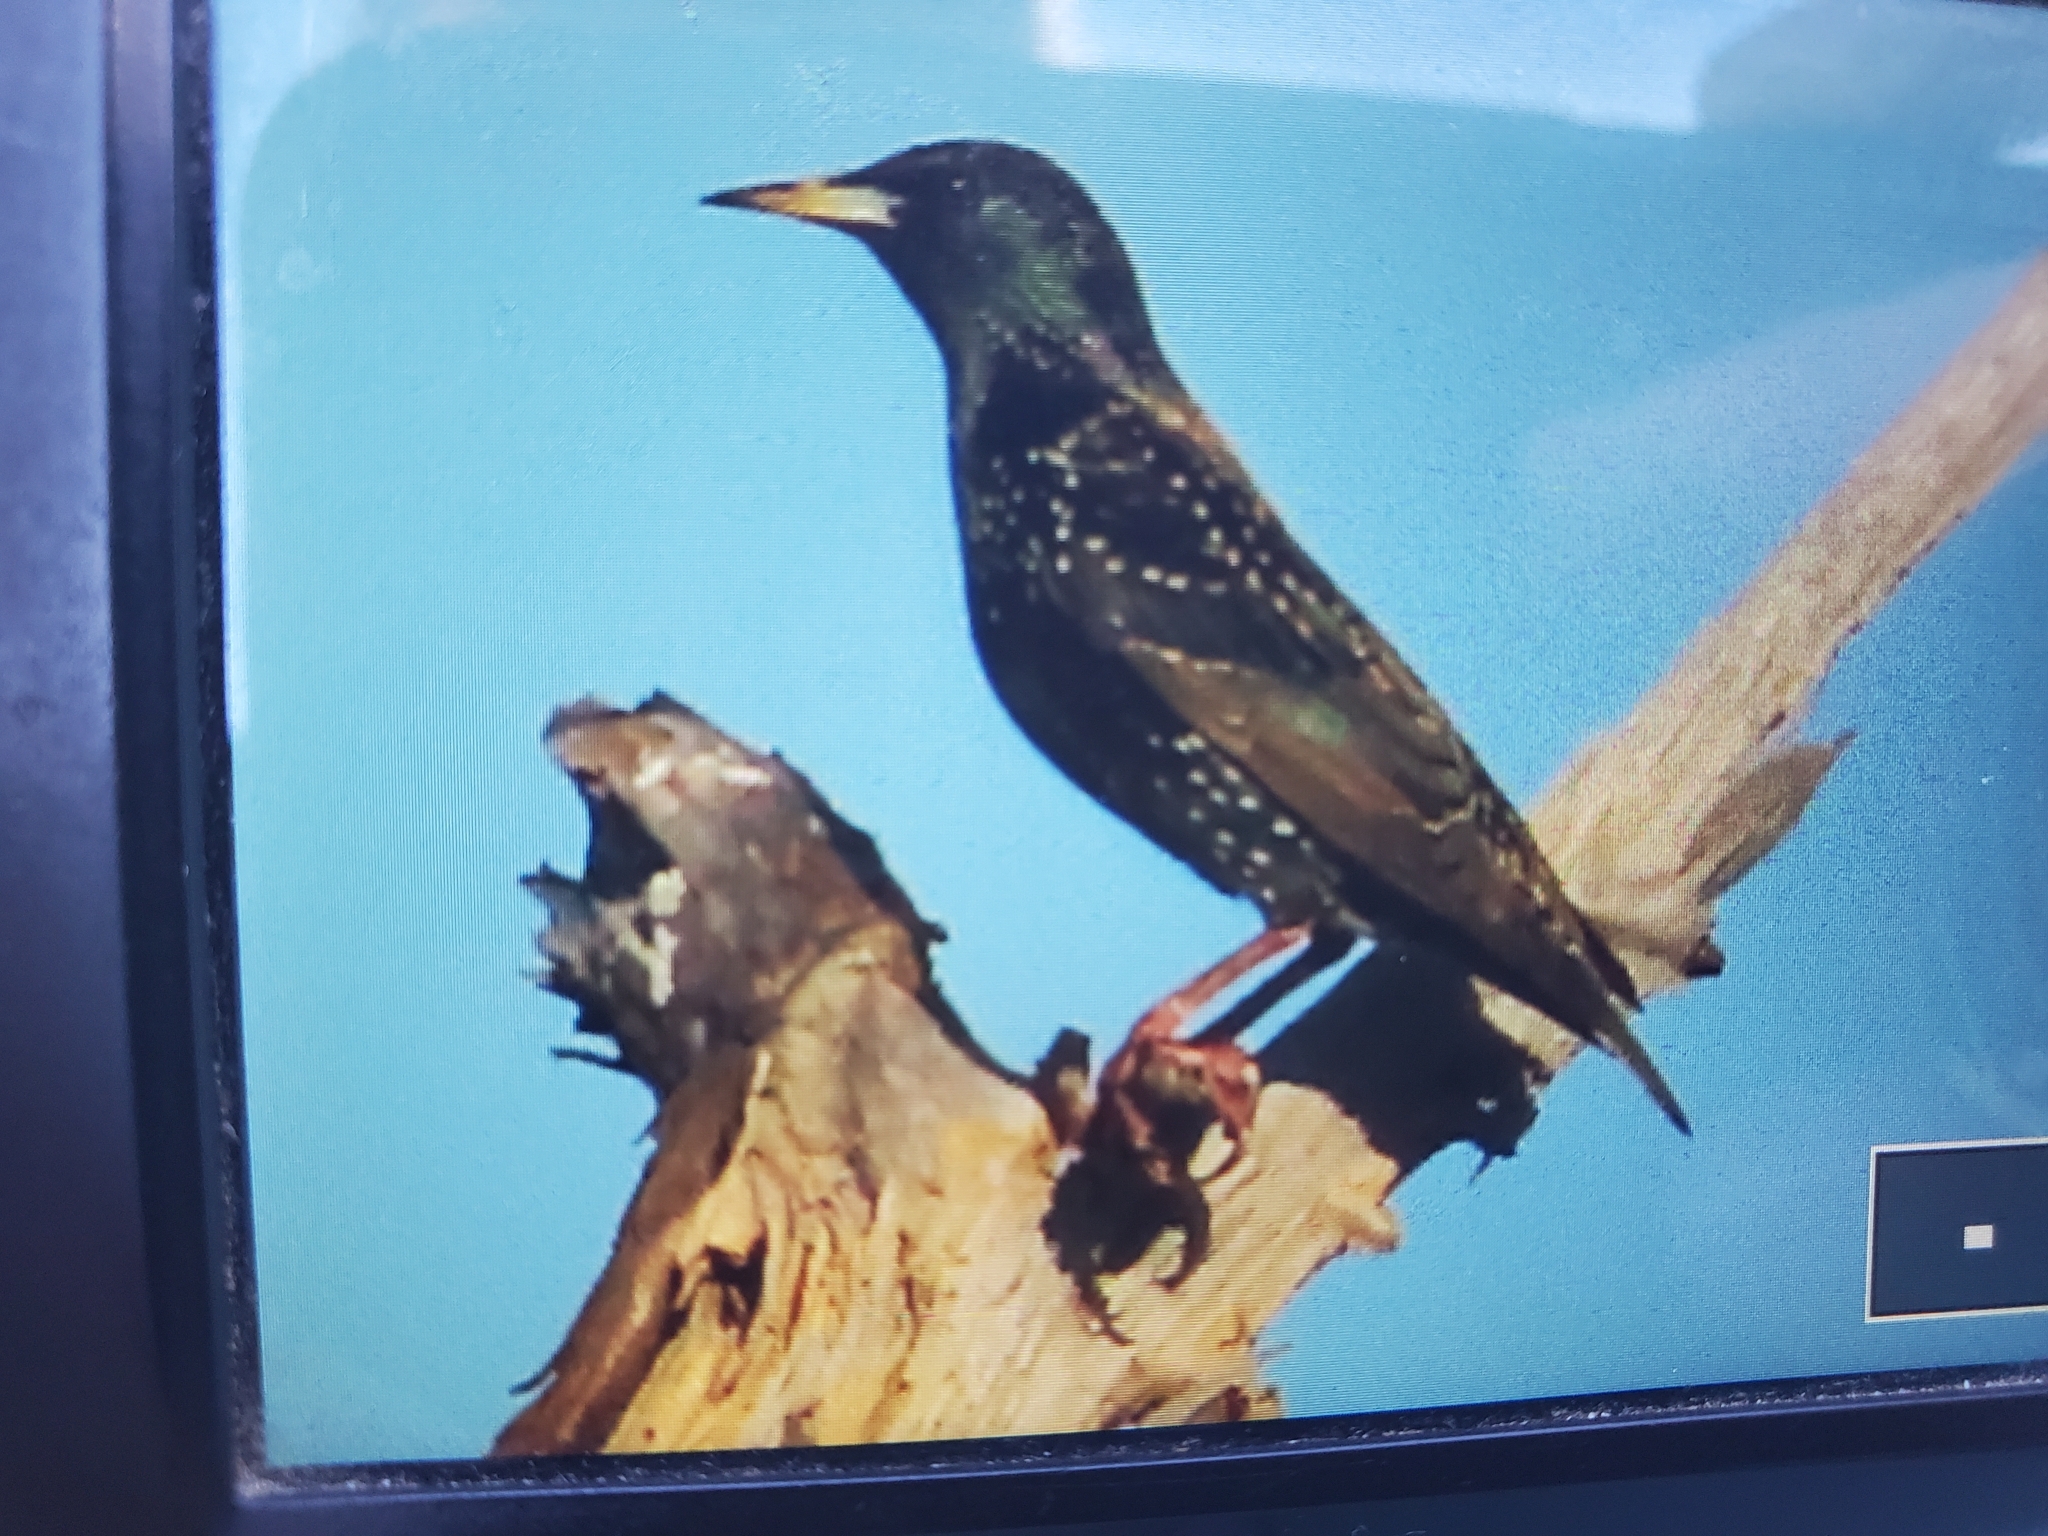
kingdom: Animalia
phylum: Chordata
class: Aves
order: Passeriformes
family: Sturnidae
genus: Sturnus
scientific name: Sturnus vulgaris
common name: Common starling
